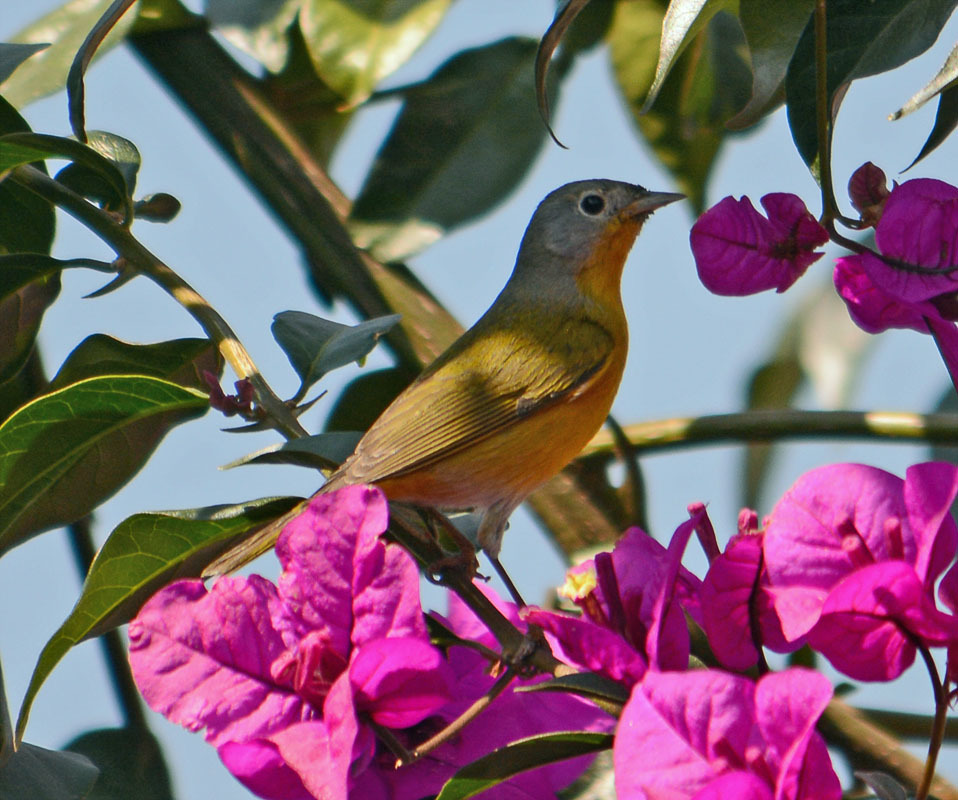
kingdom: Animalia
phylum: Chordata
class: Aves
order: Passeriformes
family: Parulidae
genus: Leiothlypis
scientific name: Leiothlypis ruficapilla
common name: Nashville warbler
